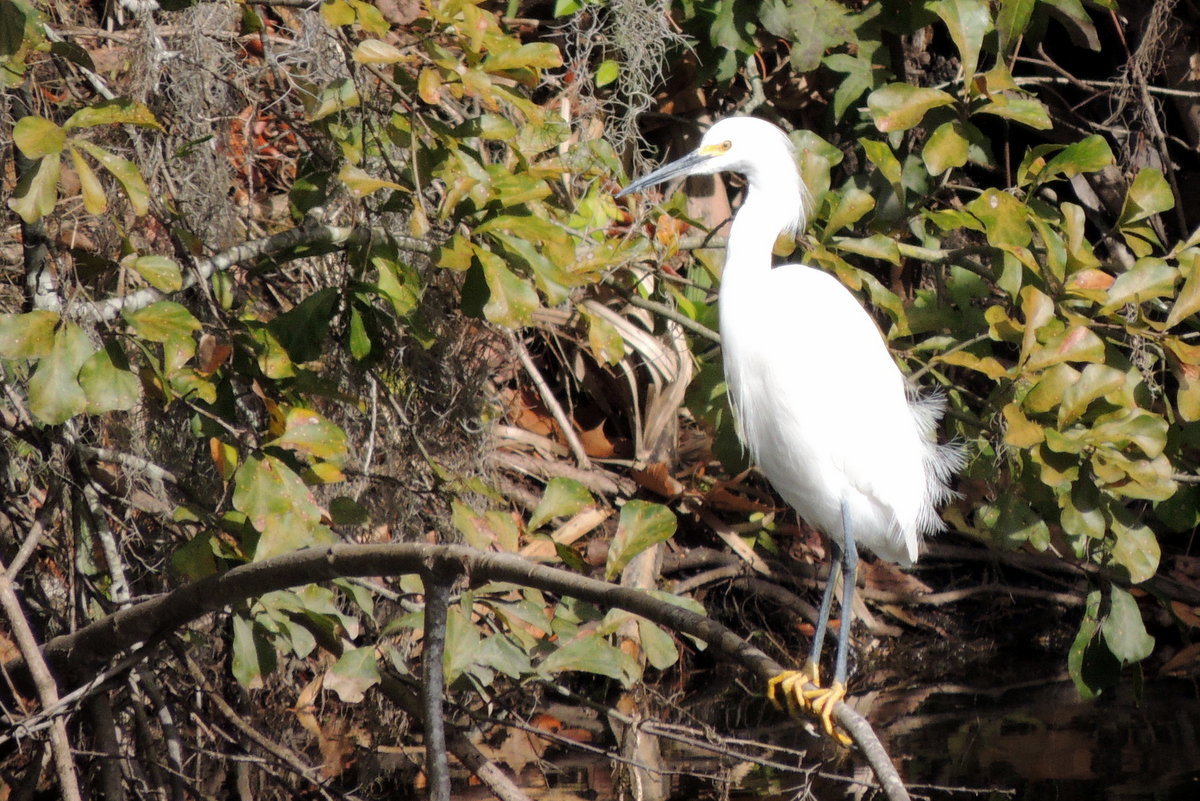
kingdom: Animalia
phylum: Chordata
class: Aves
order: Pelecaniformes
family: Ardeidae
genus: Egretta
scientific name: Egretta thula
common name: Snowy egret
